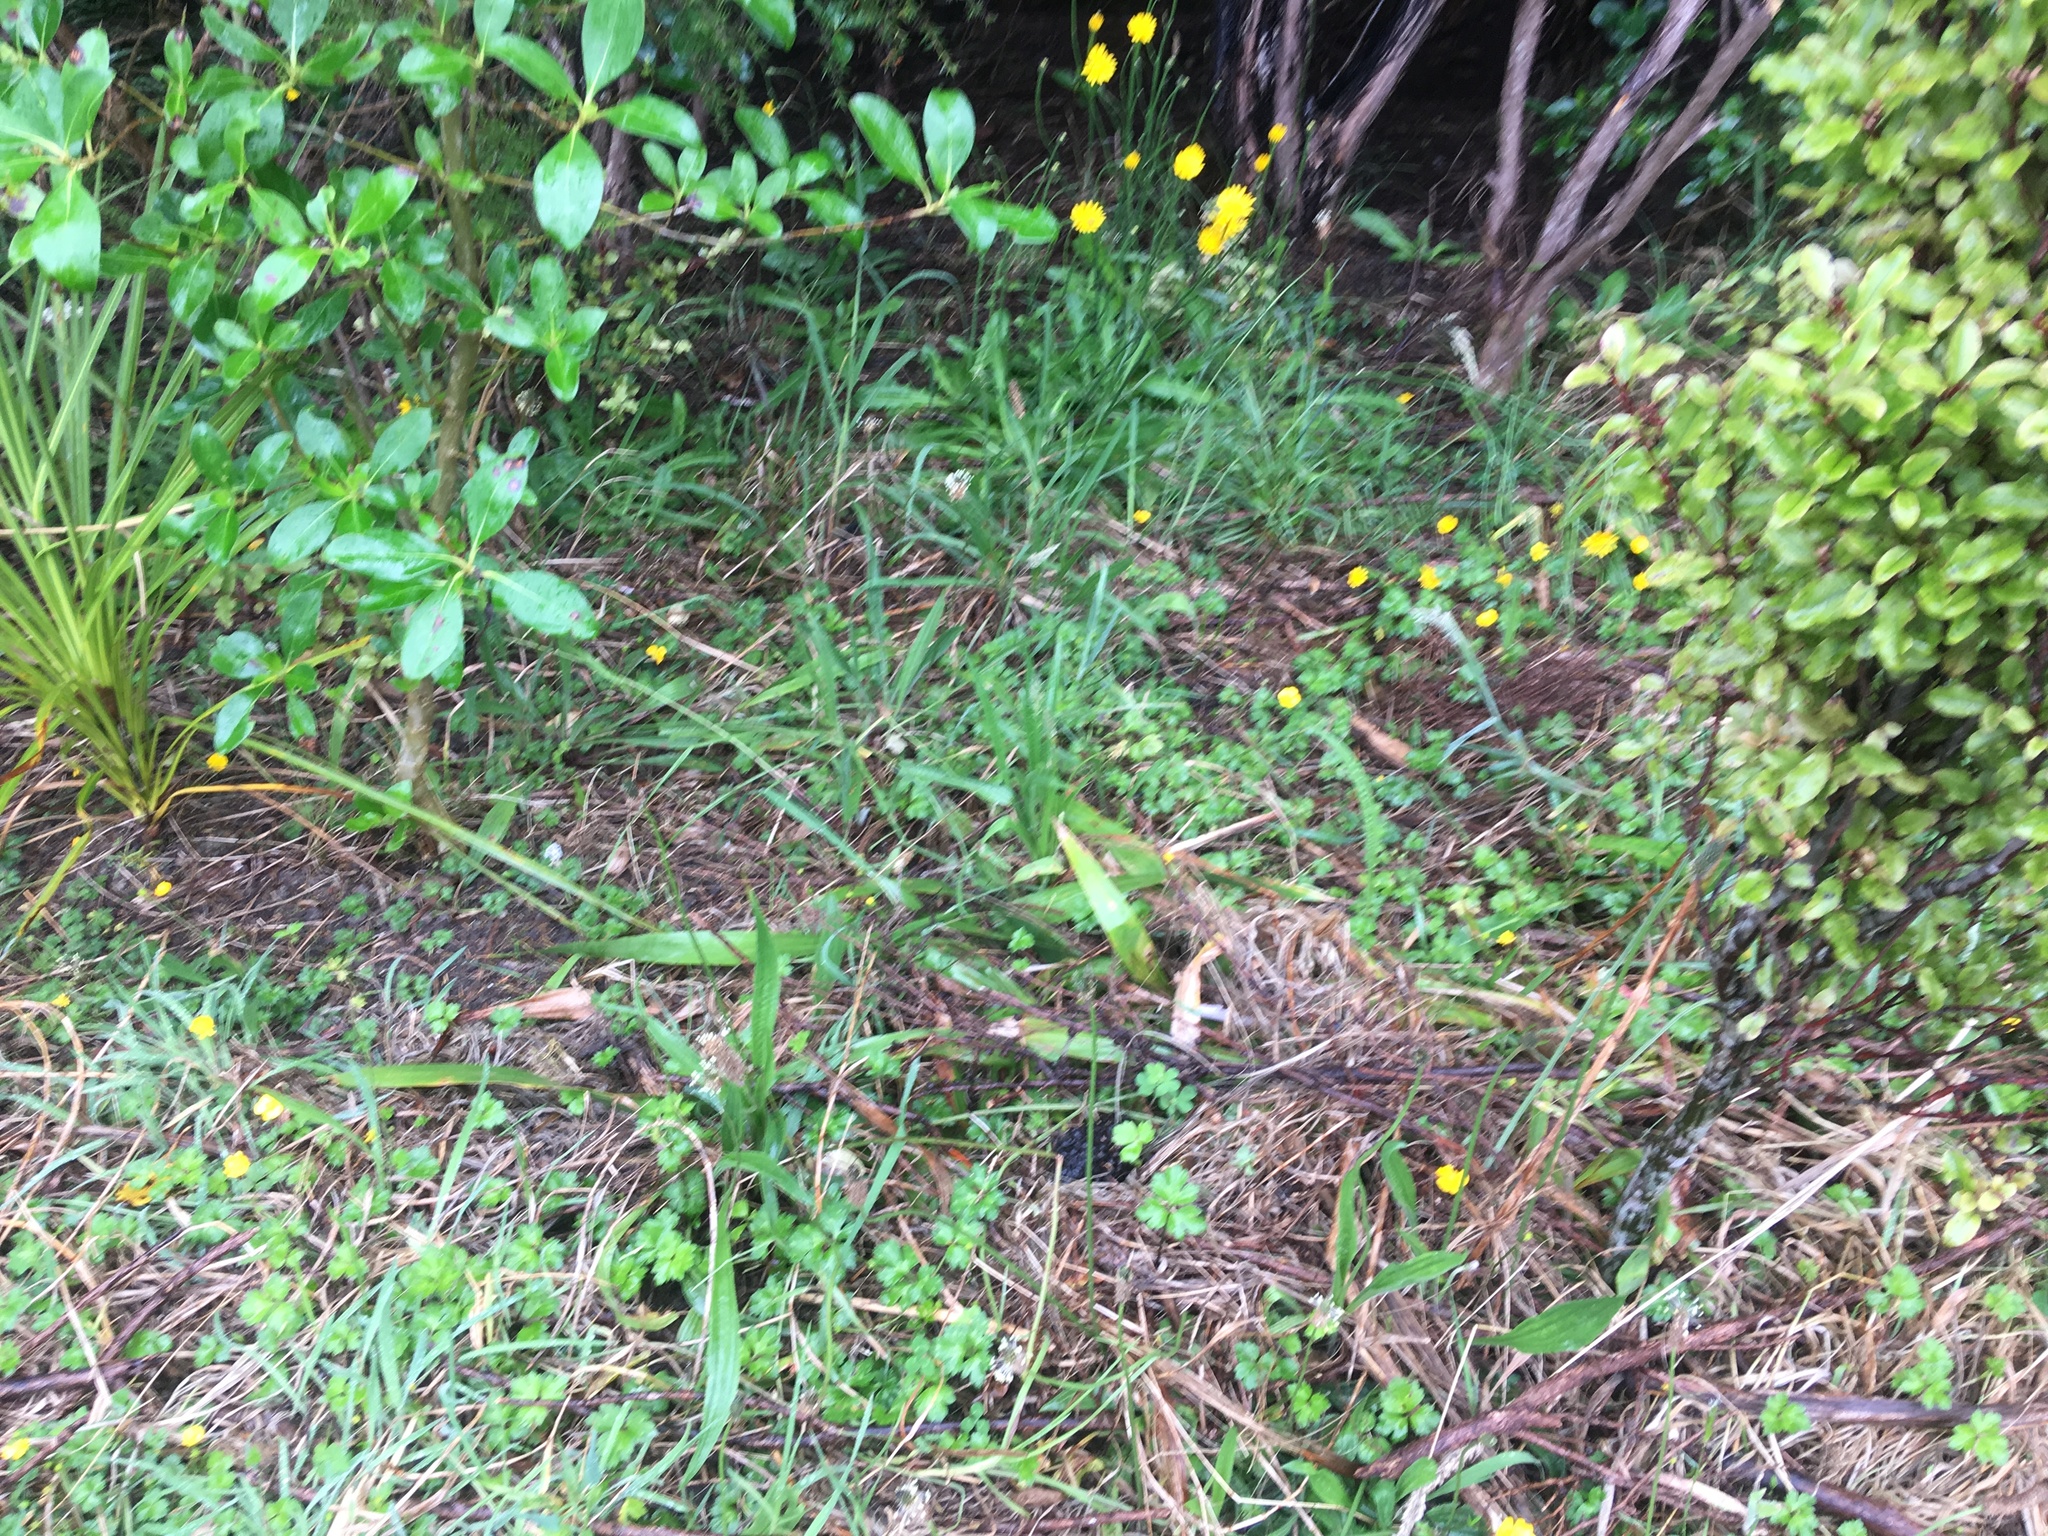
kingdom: Plantae
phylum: Tracheophyta
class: Magnoliopsida
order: Ranunculales
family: Ranunculaceae
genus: Ranunculus
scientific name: Ranunculus repens
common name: Creeping buttercup
